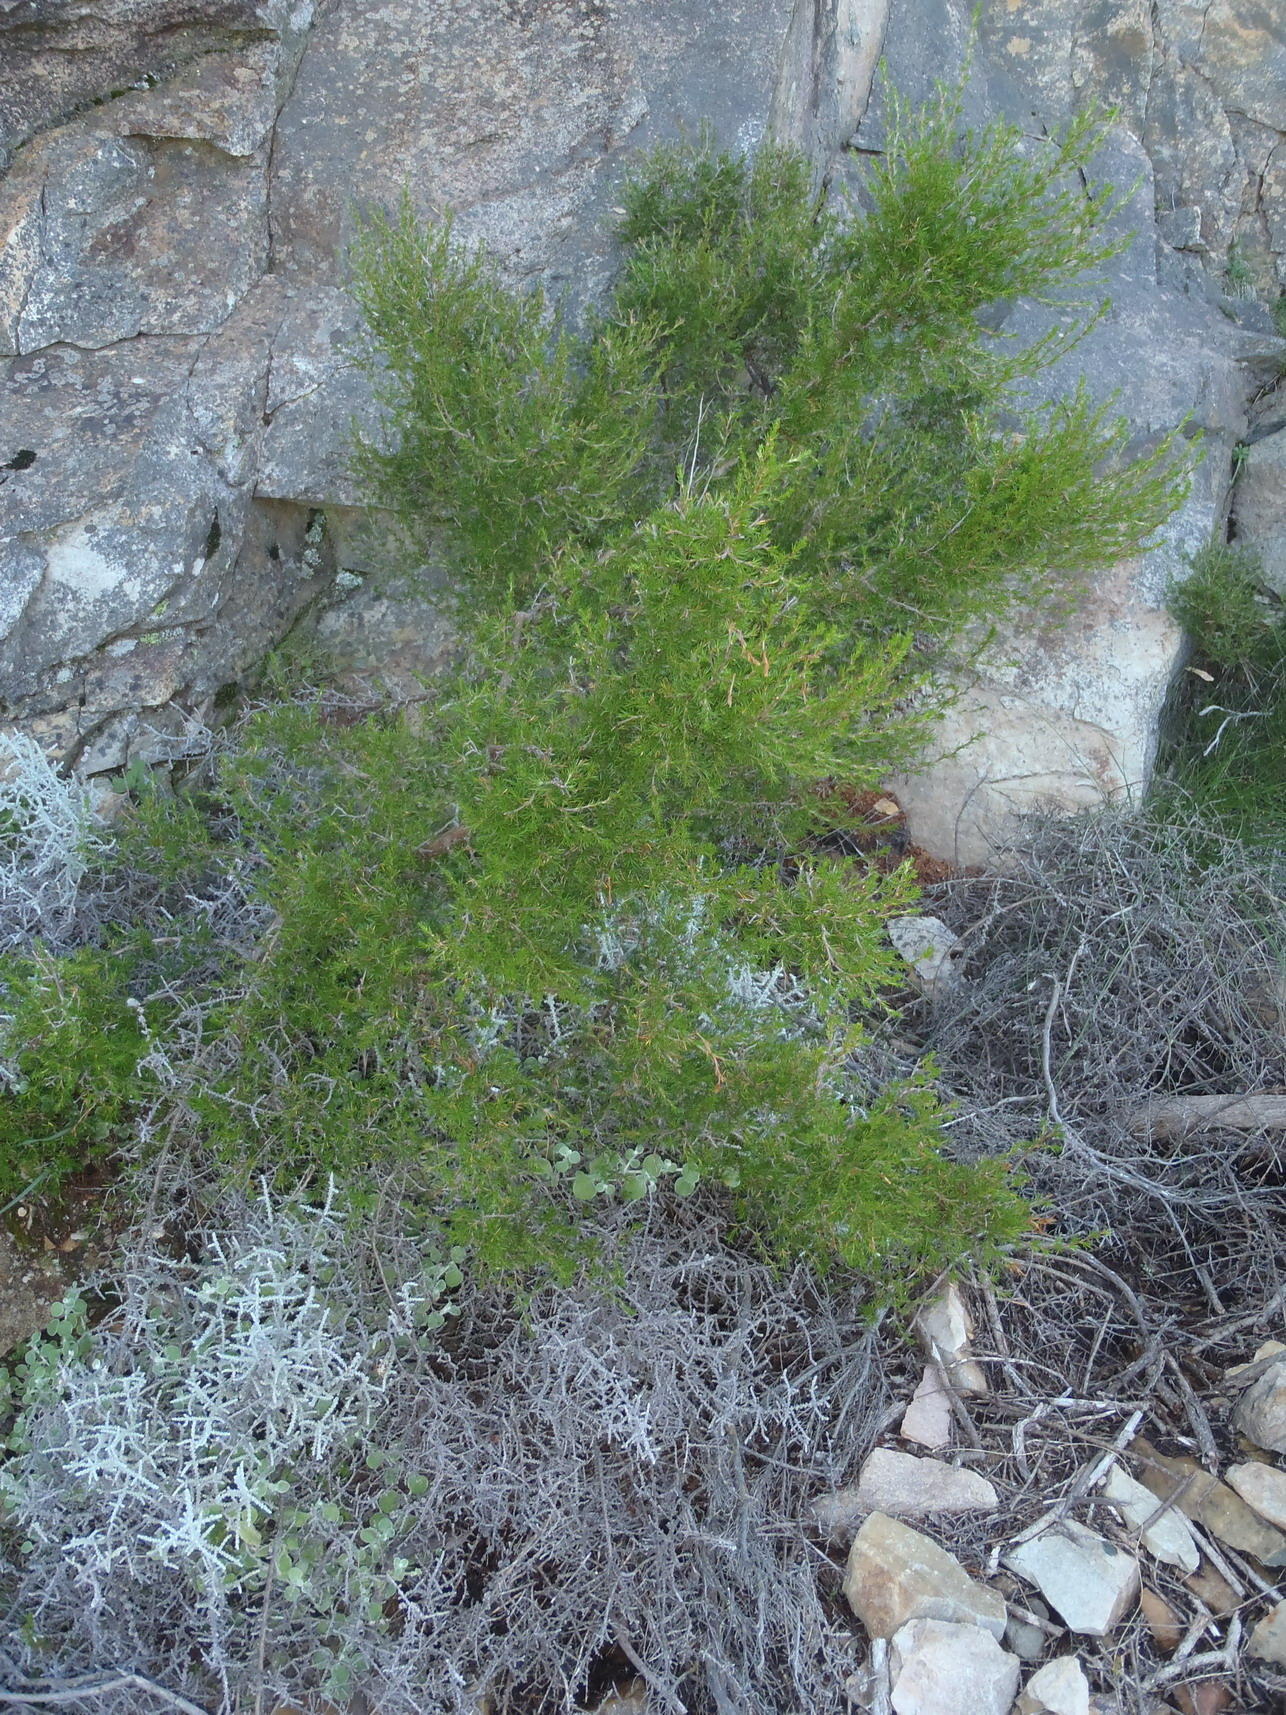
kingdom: Plantae
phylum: Tracheophyta
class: Magnoliopsida
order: Rosales
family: Rosaceae
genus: Cliffortia
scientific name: Cliffortia tuberculata
